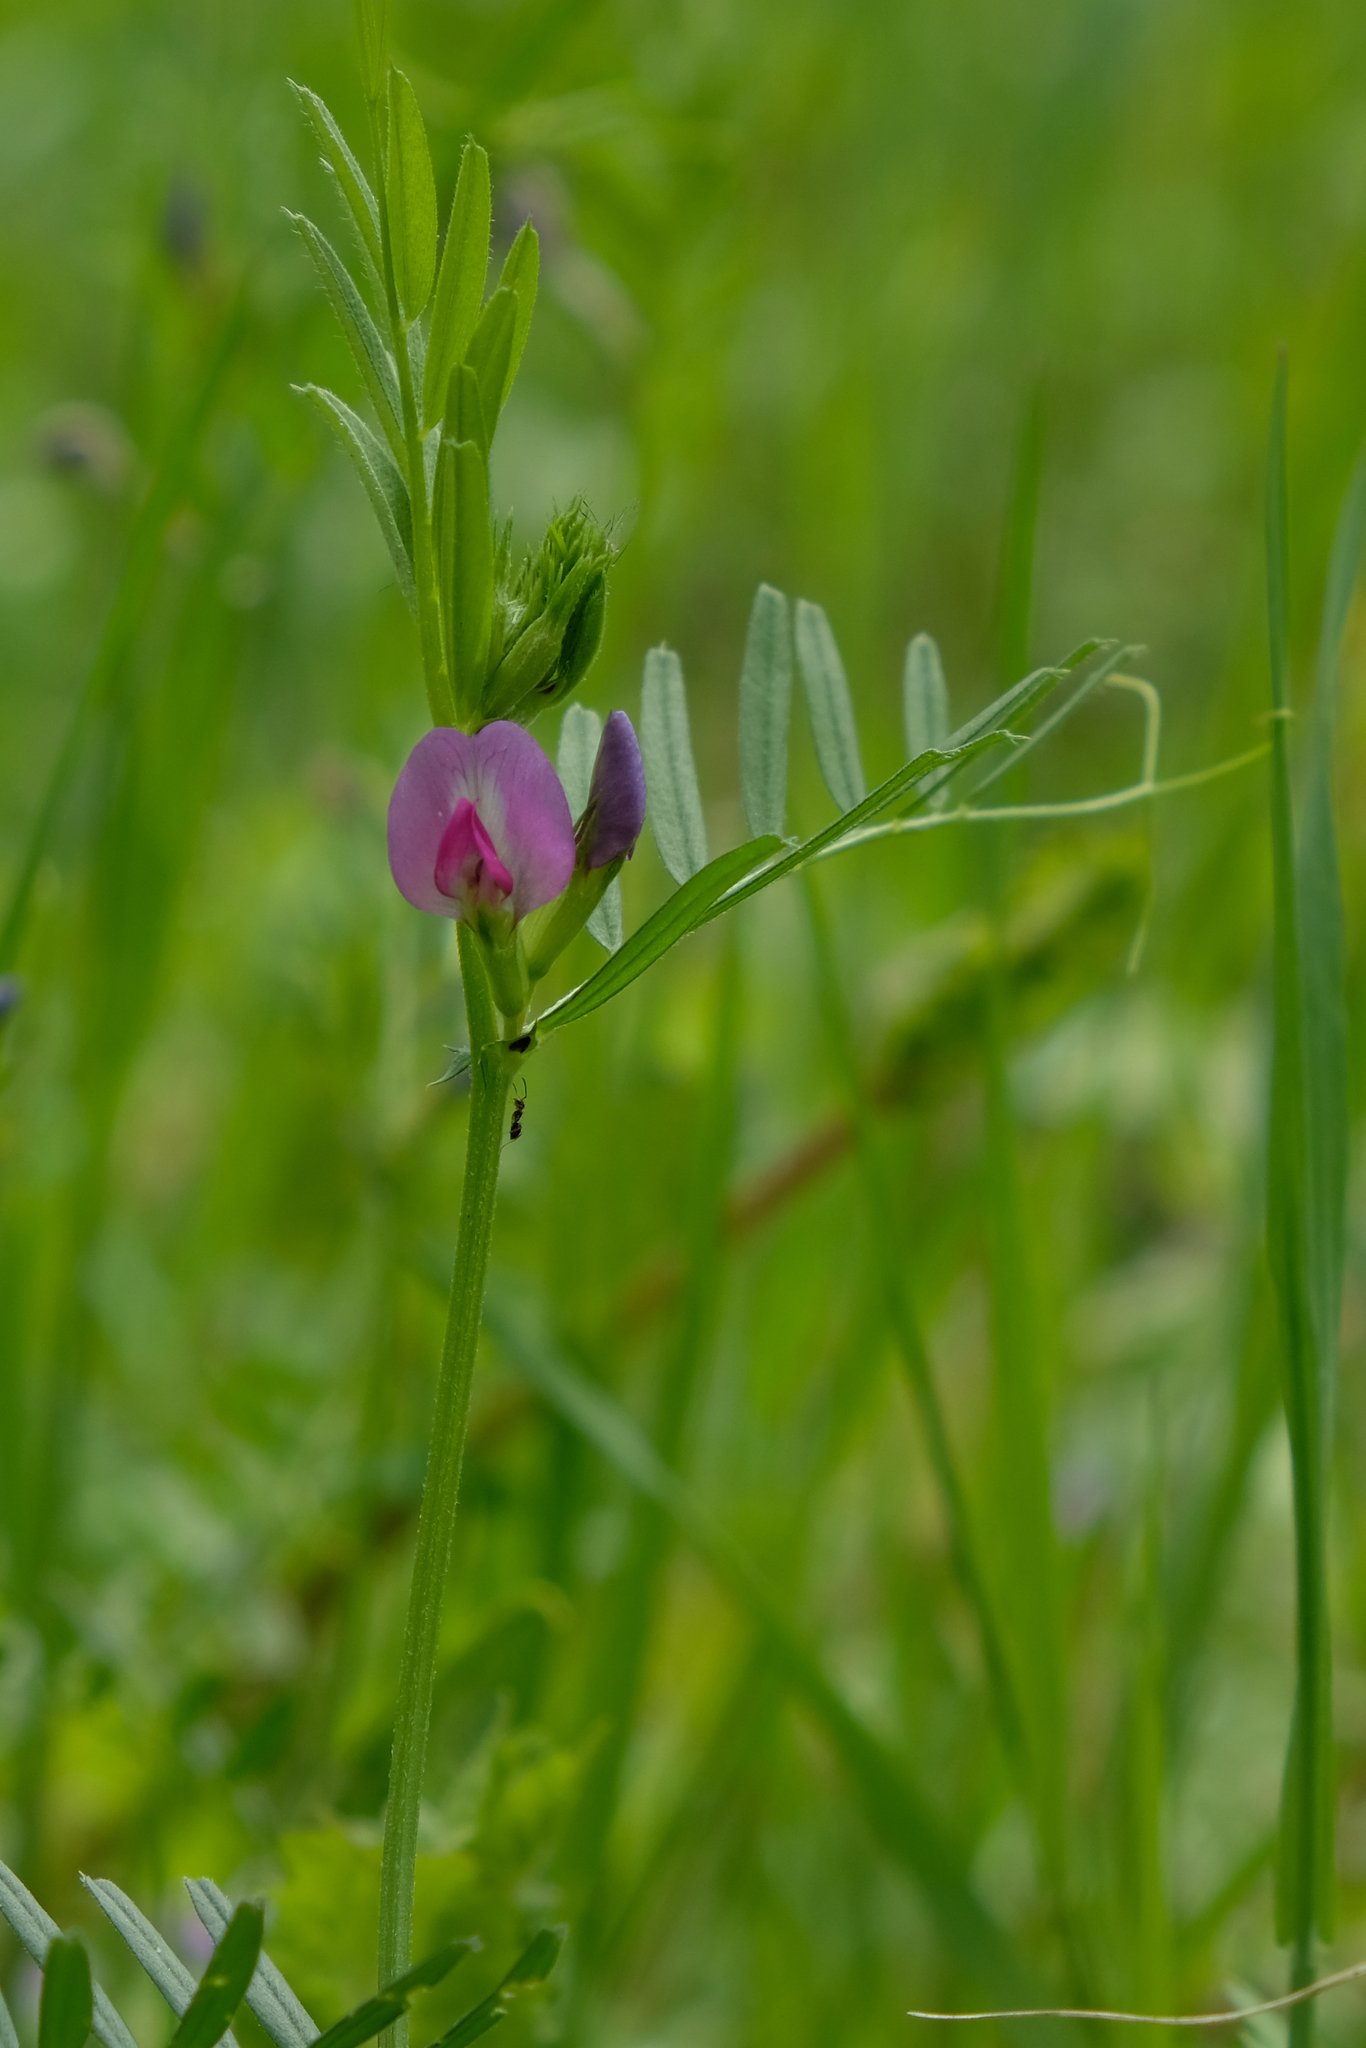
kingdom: Plantae
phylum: Tracheophyta
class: Magnoliopsida
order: Fabales
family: Fabaceae
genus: Vicia
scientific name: Vicia sativa
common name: Garden vetch
